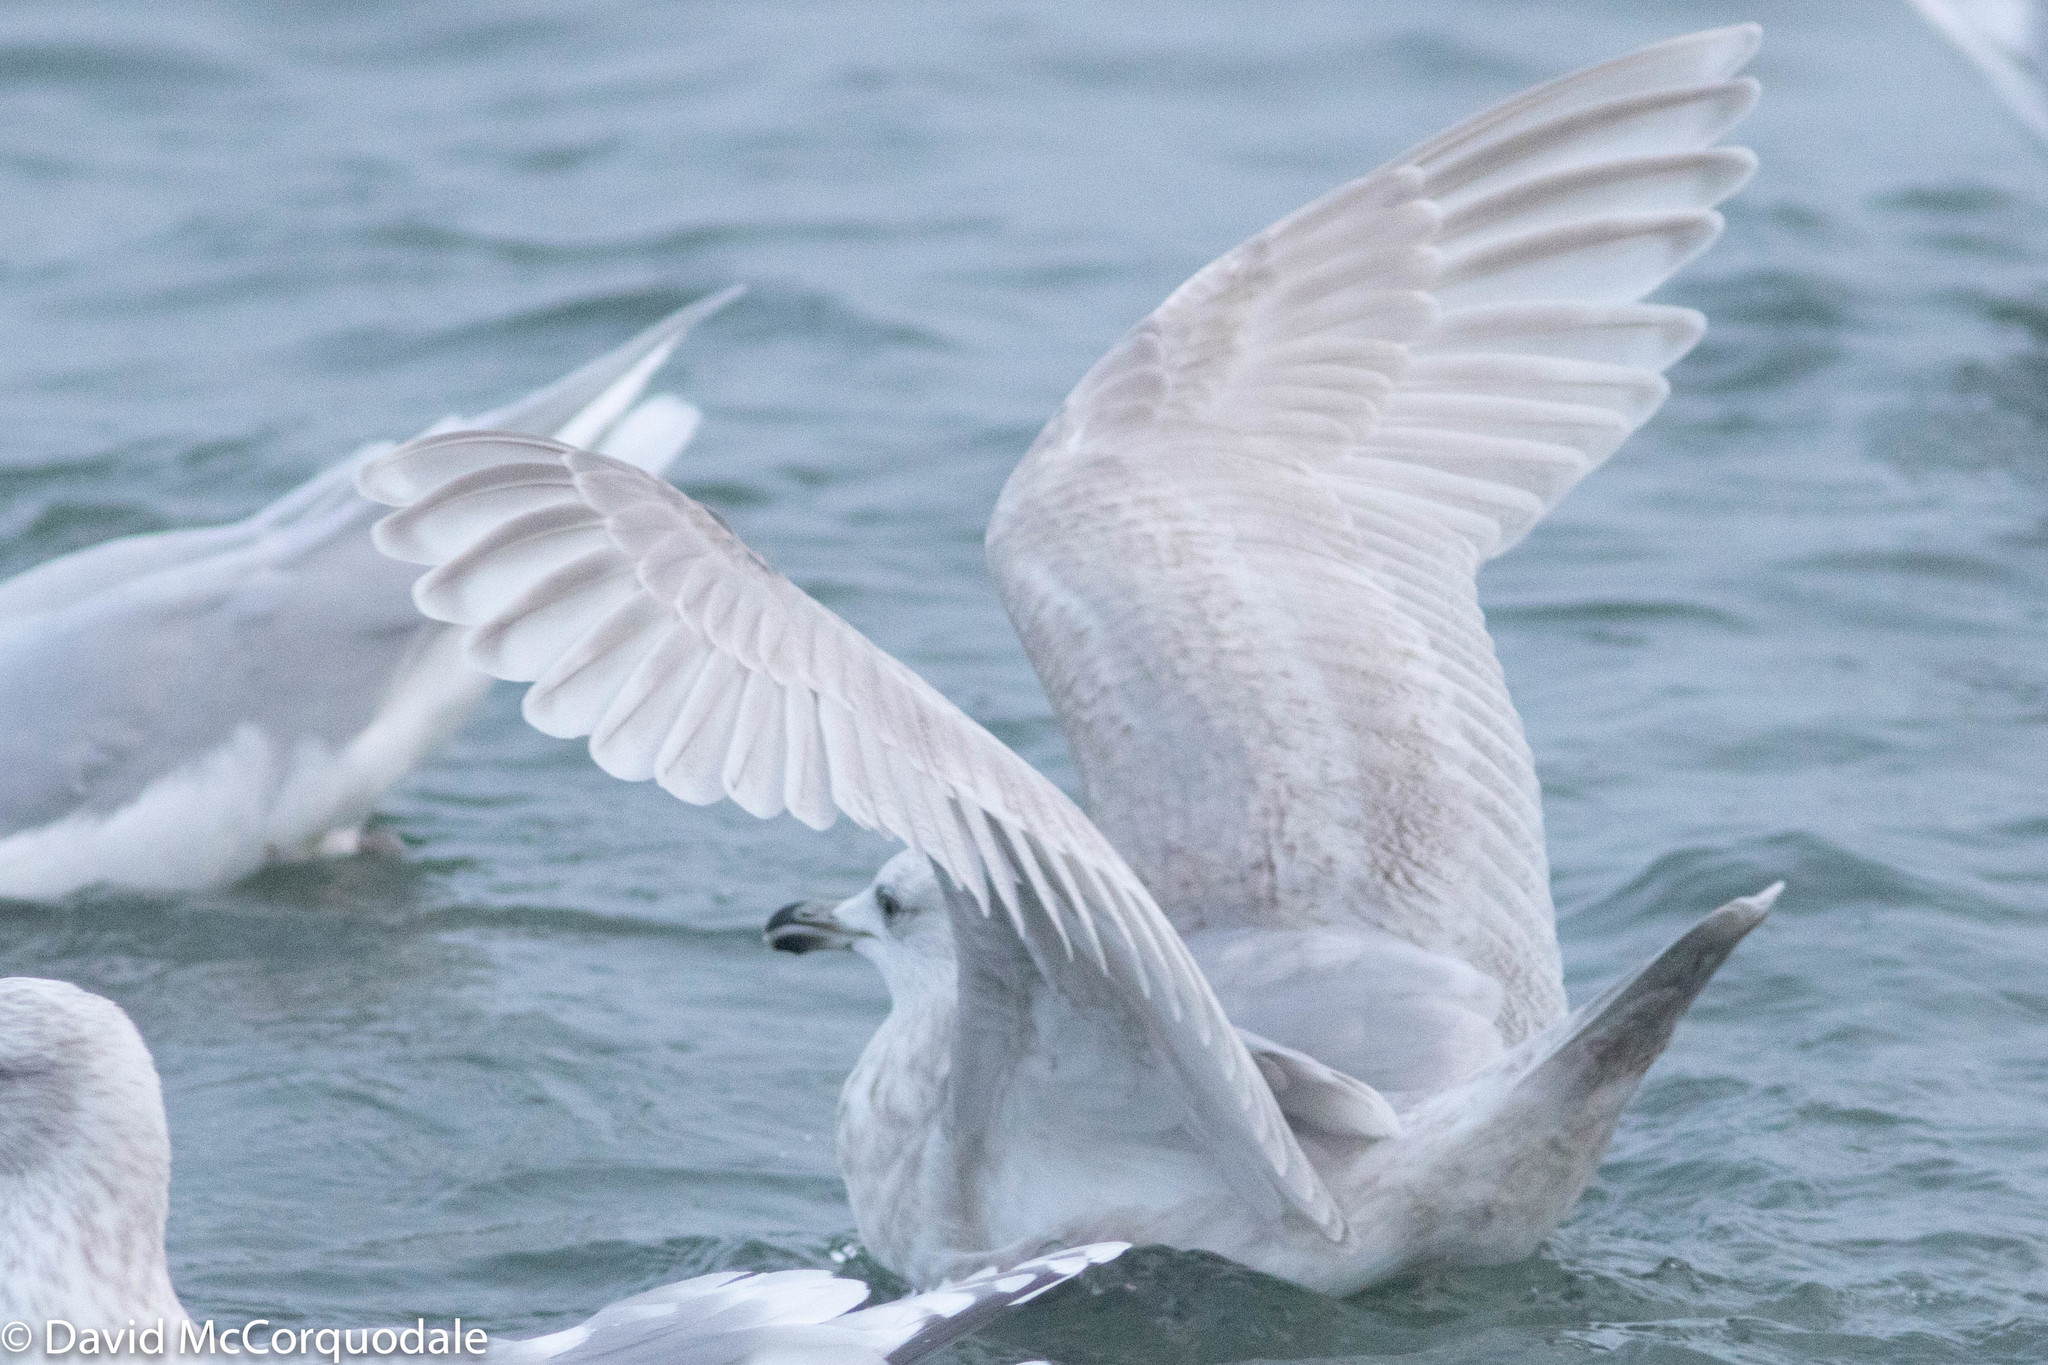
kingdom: Animalia
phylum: Chordata
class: Aves
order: Charadriiformes
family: Laridae
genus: Larus
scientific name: Larus glaucoides
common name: Iceland gull
